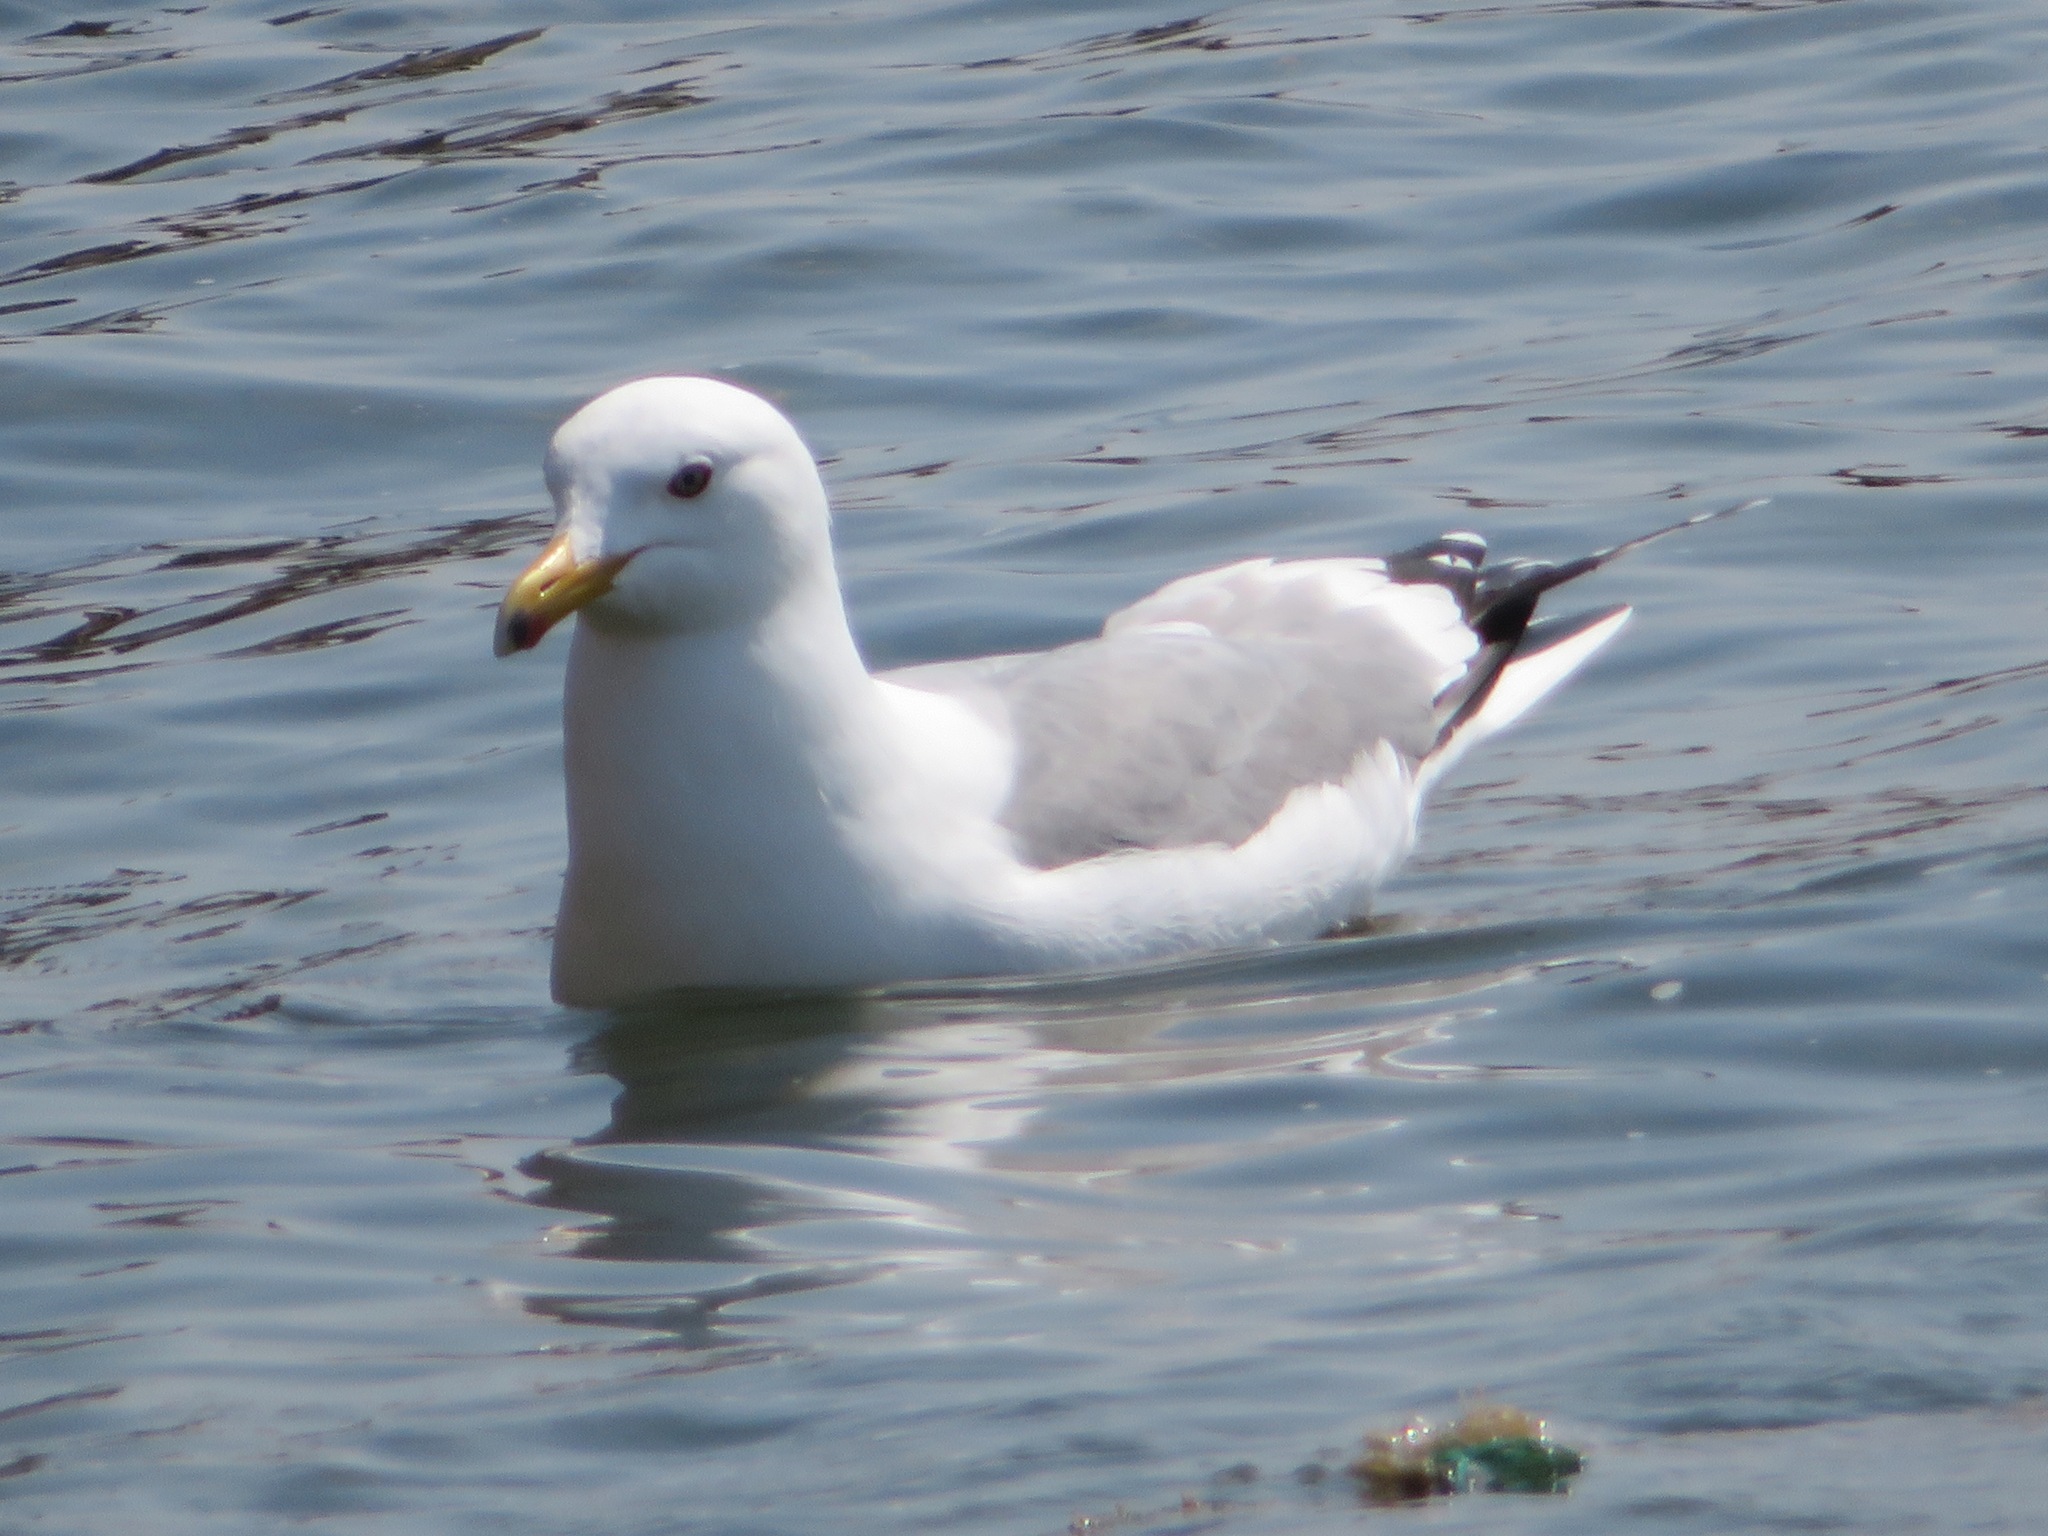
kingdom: Animalia
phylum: Chordata
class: Aves
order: Charadriiformes
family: Laridae
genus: Larus
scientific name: Larus vegae
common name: Vega gull
